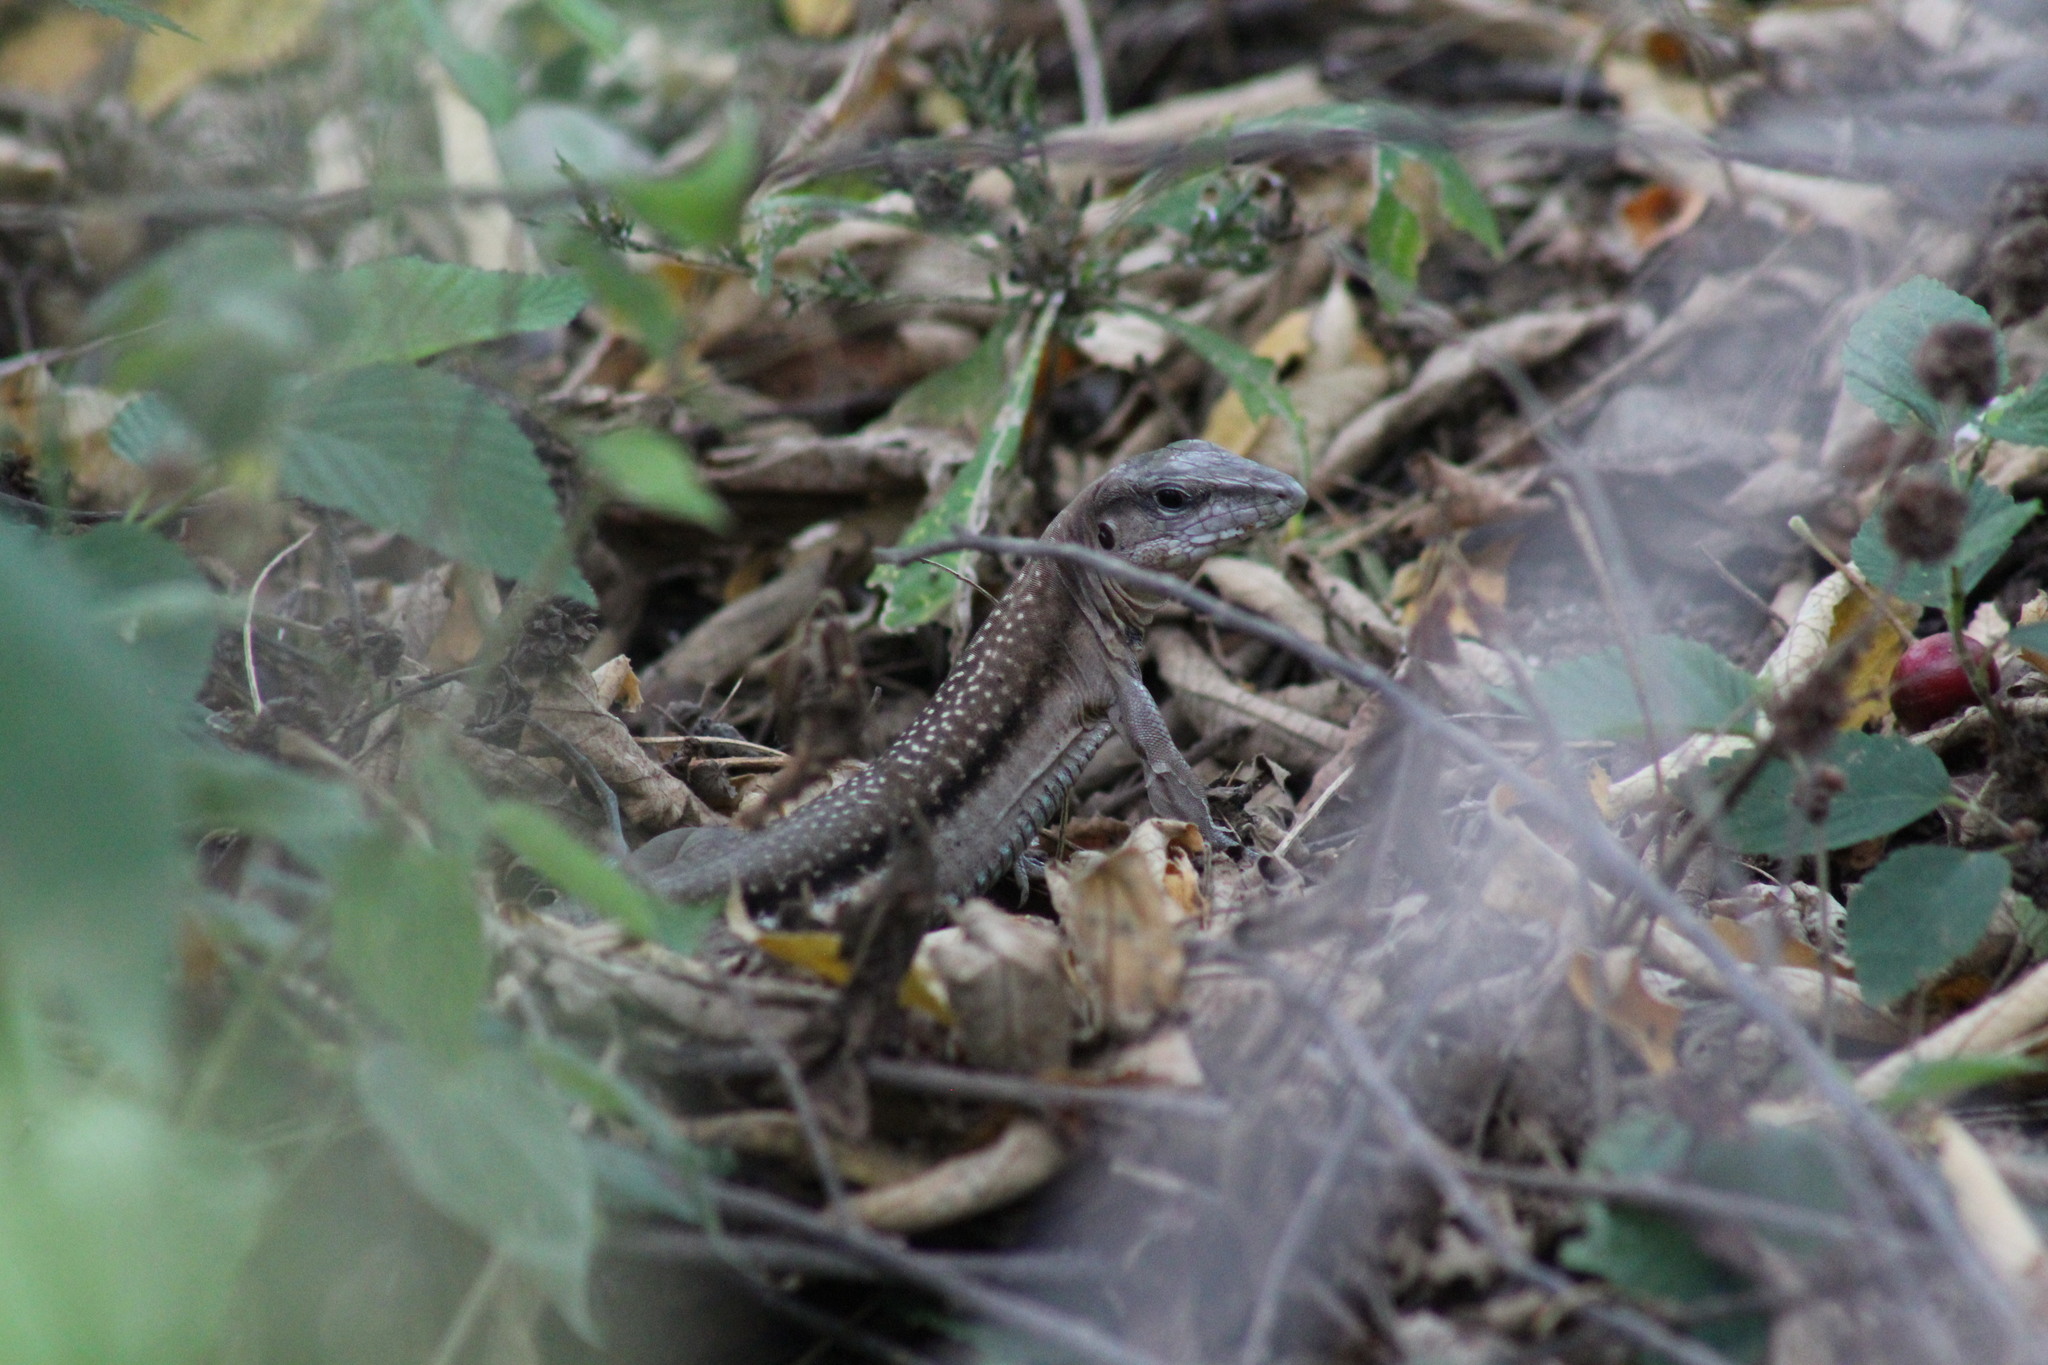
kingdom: Animalia
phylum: Chordata
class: Squamata
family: Teiidae
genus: Aspidoscelis
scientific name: Aspidoscelis guttatus
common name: Mexican racerunner
